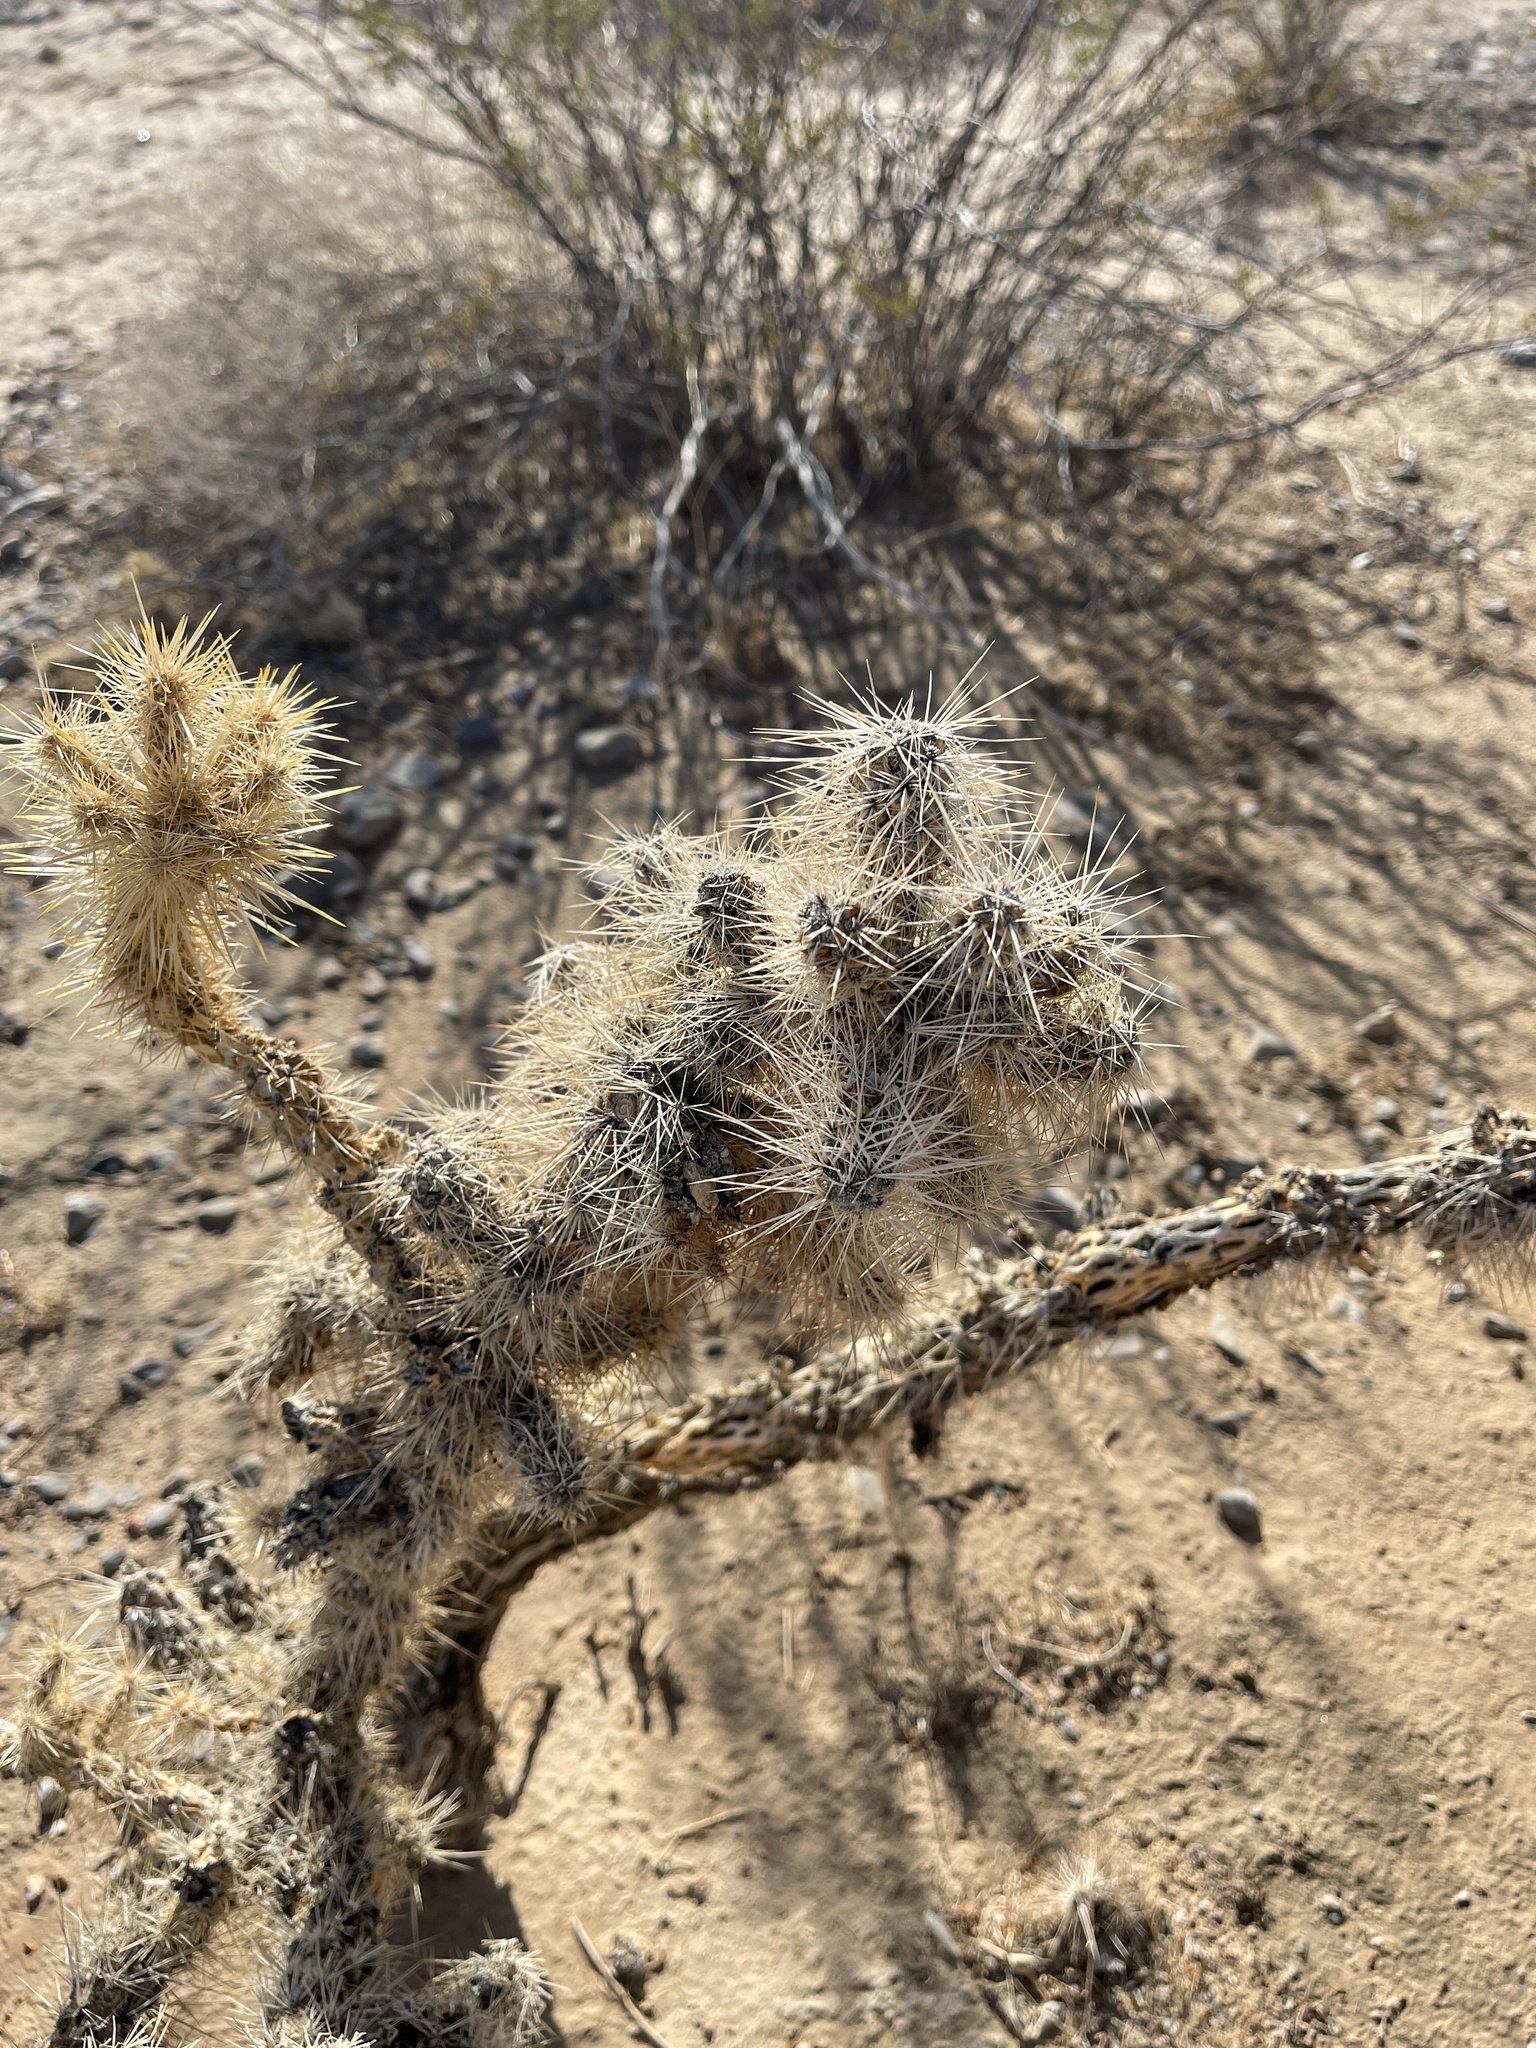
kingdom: Plantae
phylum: Tracheophyta
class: Magnoliopsida
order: Caryophyllales
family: Cactaceae
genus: Cylindropuntia
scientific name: Cylindropuntia echinocarpa
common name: Ground cholla
